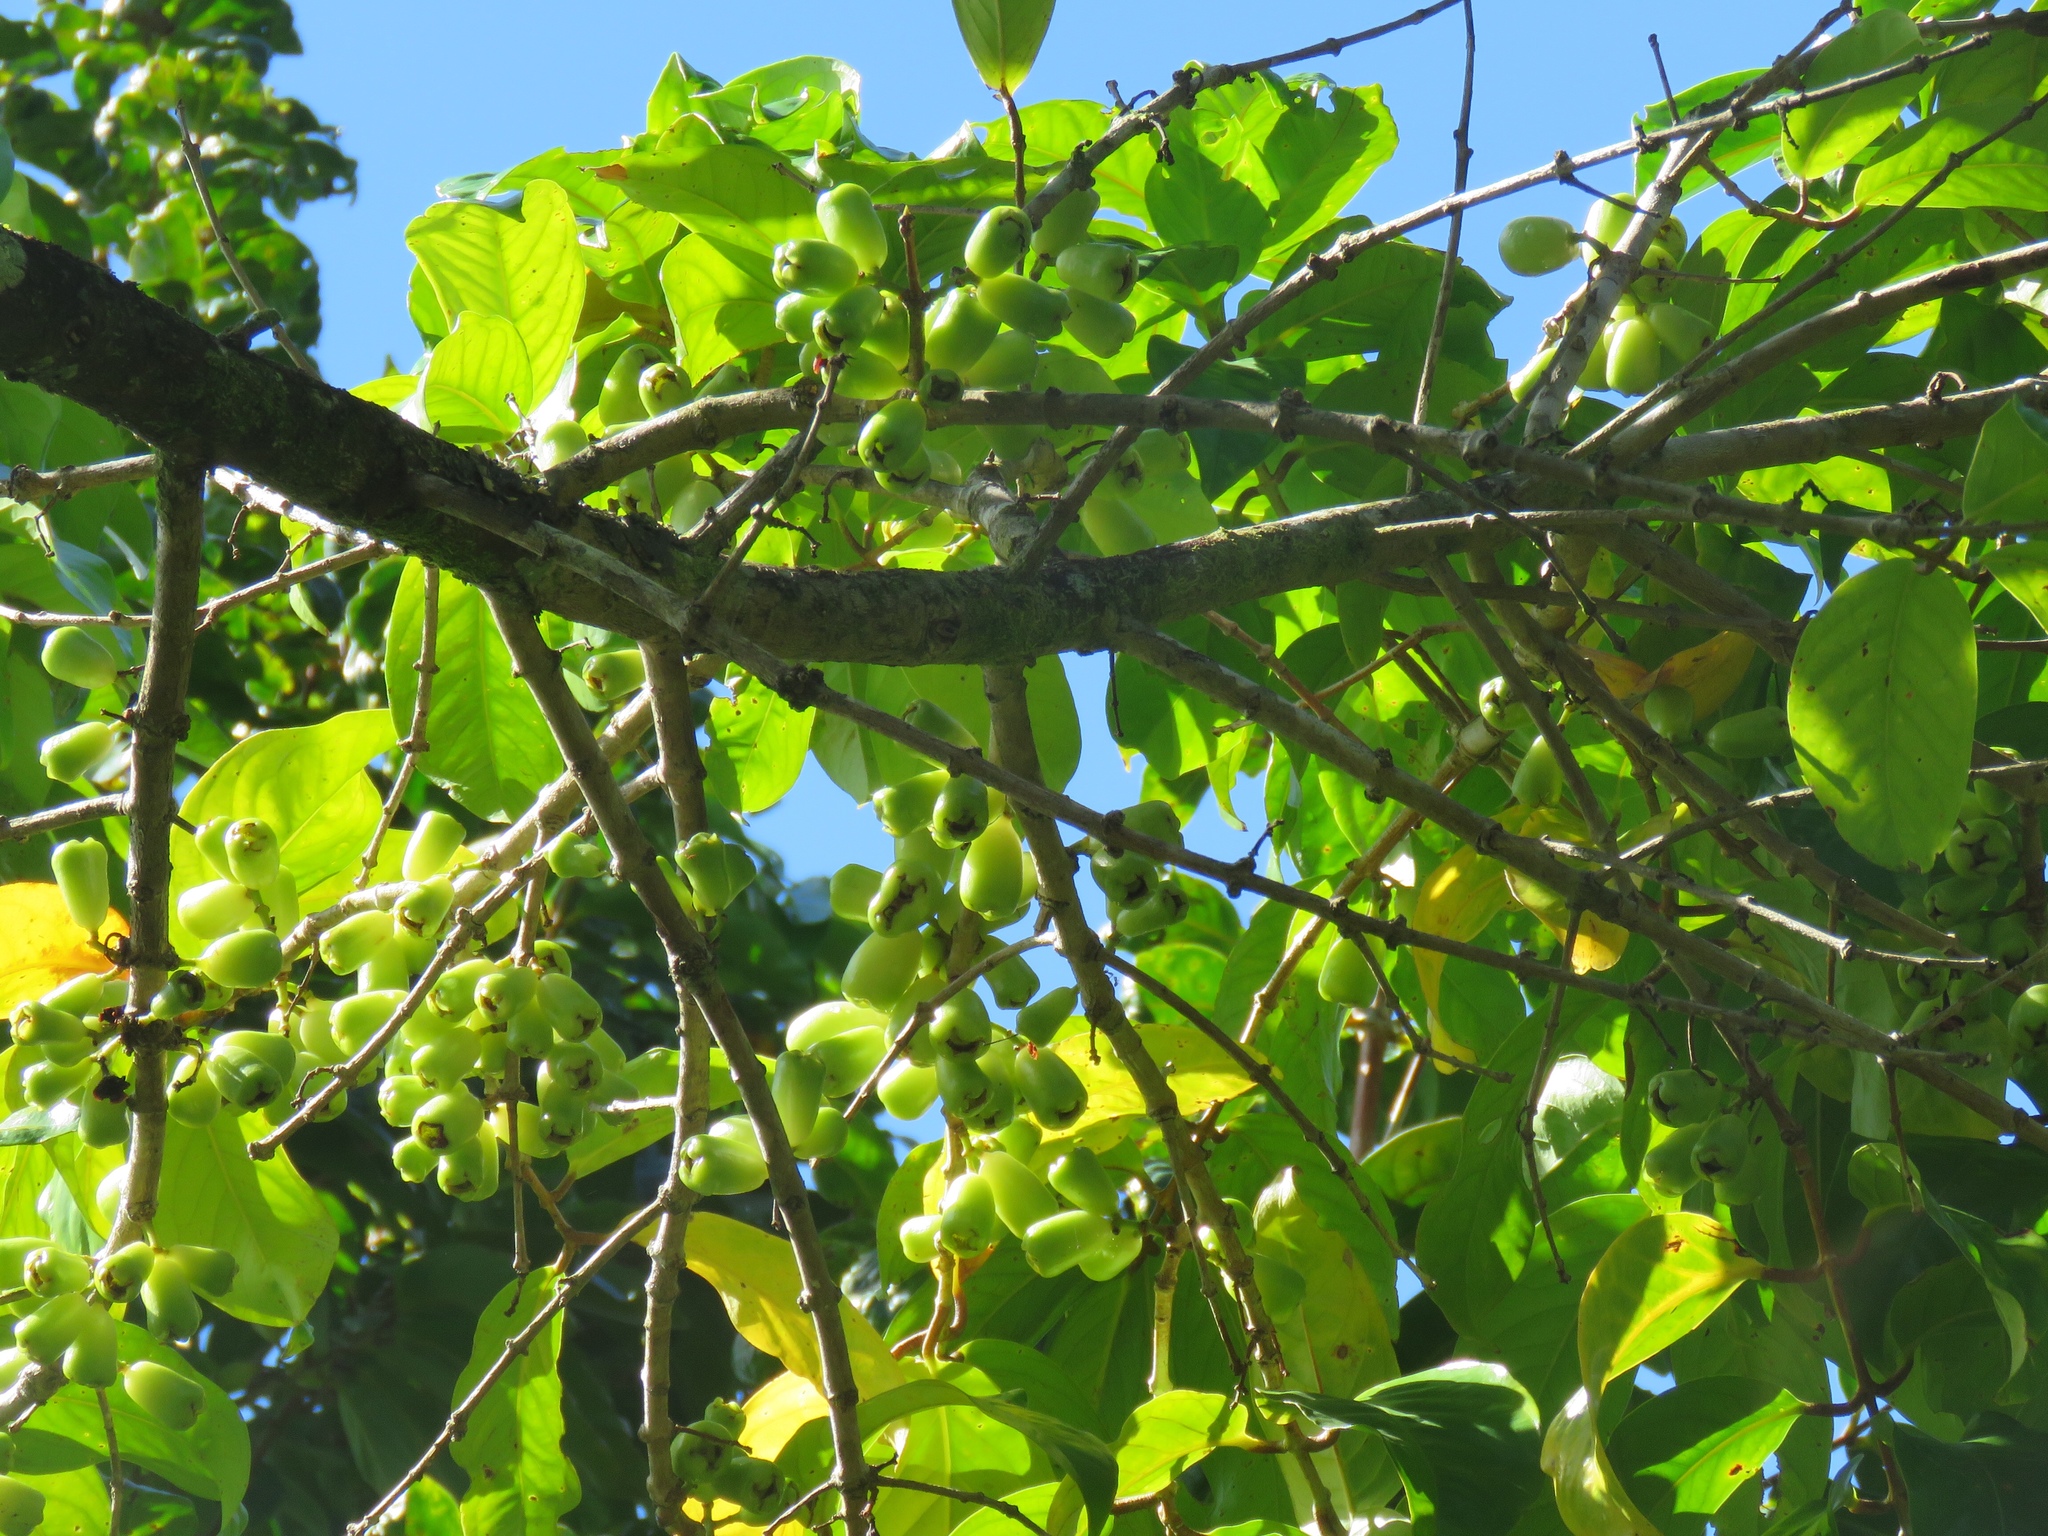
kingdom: Plantae
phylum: Tracheophyta
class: Magnoliopsida
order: Myrtales
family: Myrtaceae
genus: Syzygium
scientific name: Syzygium malaccense
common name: Malaysian apple
